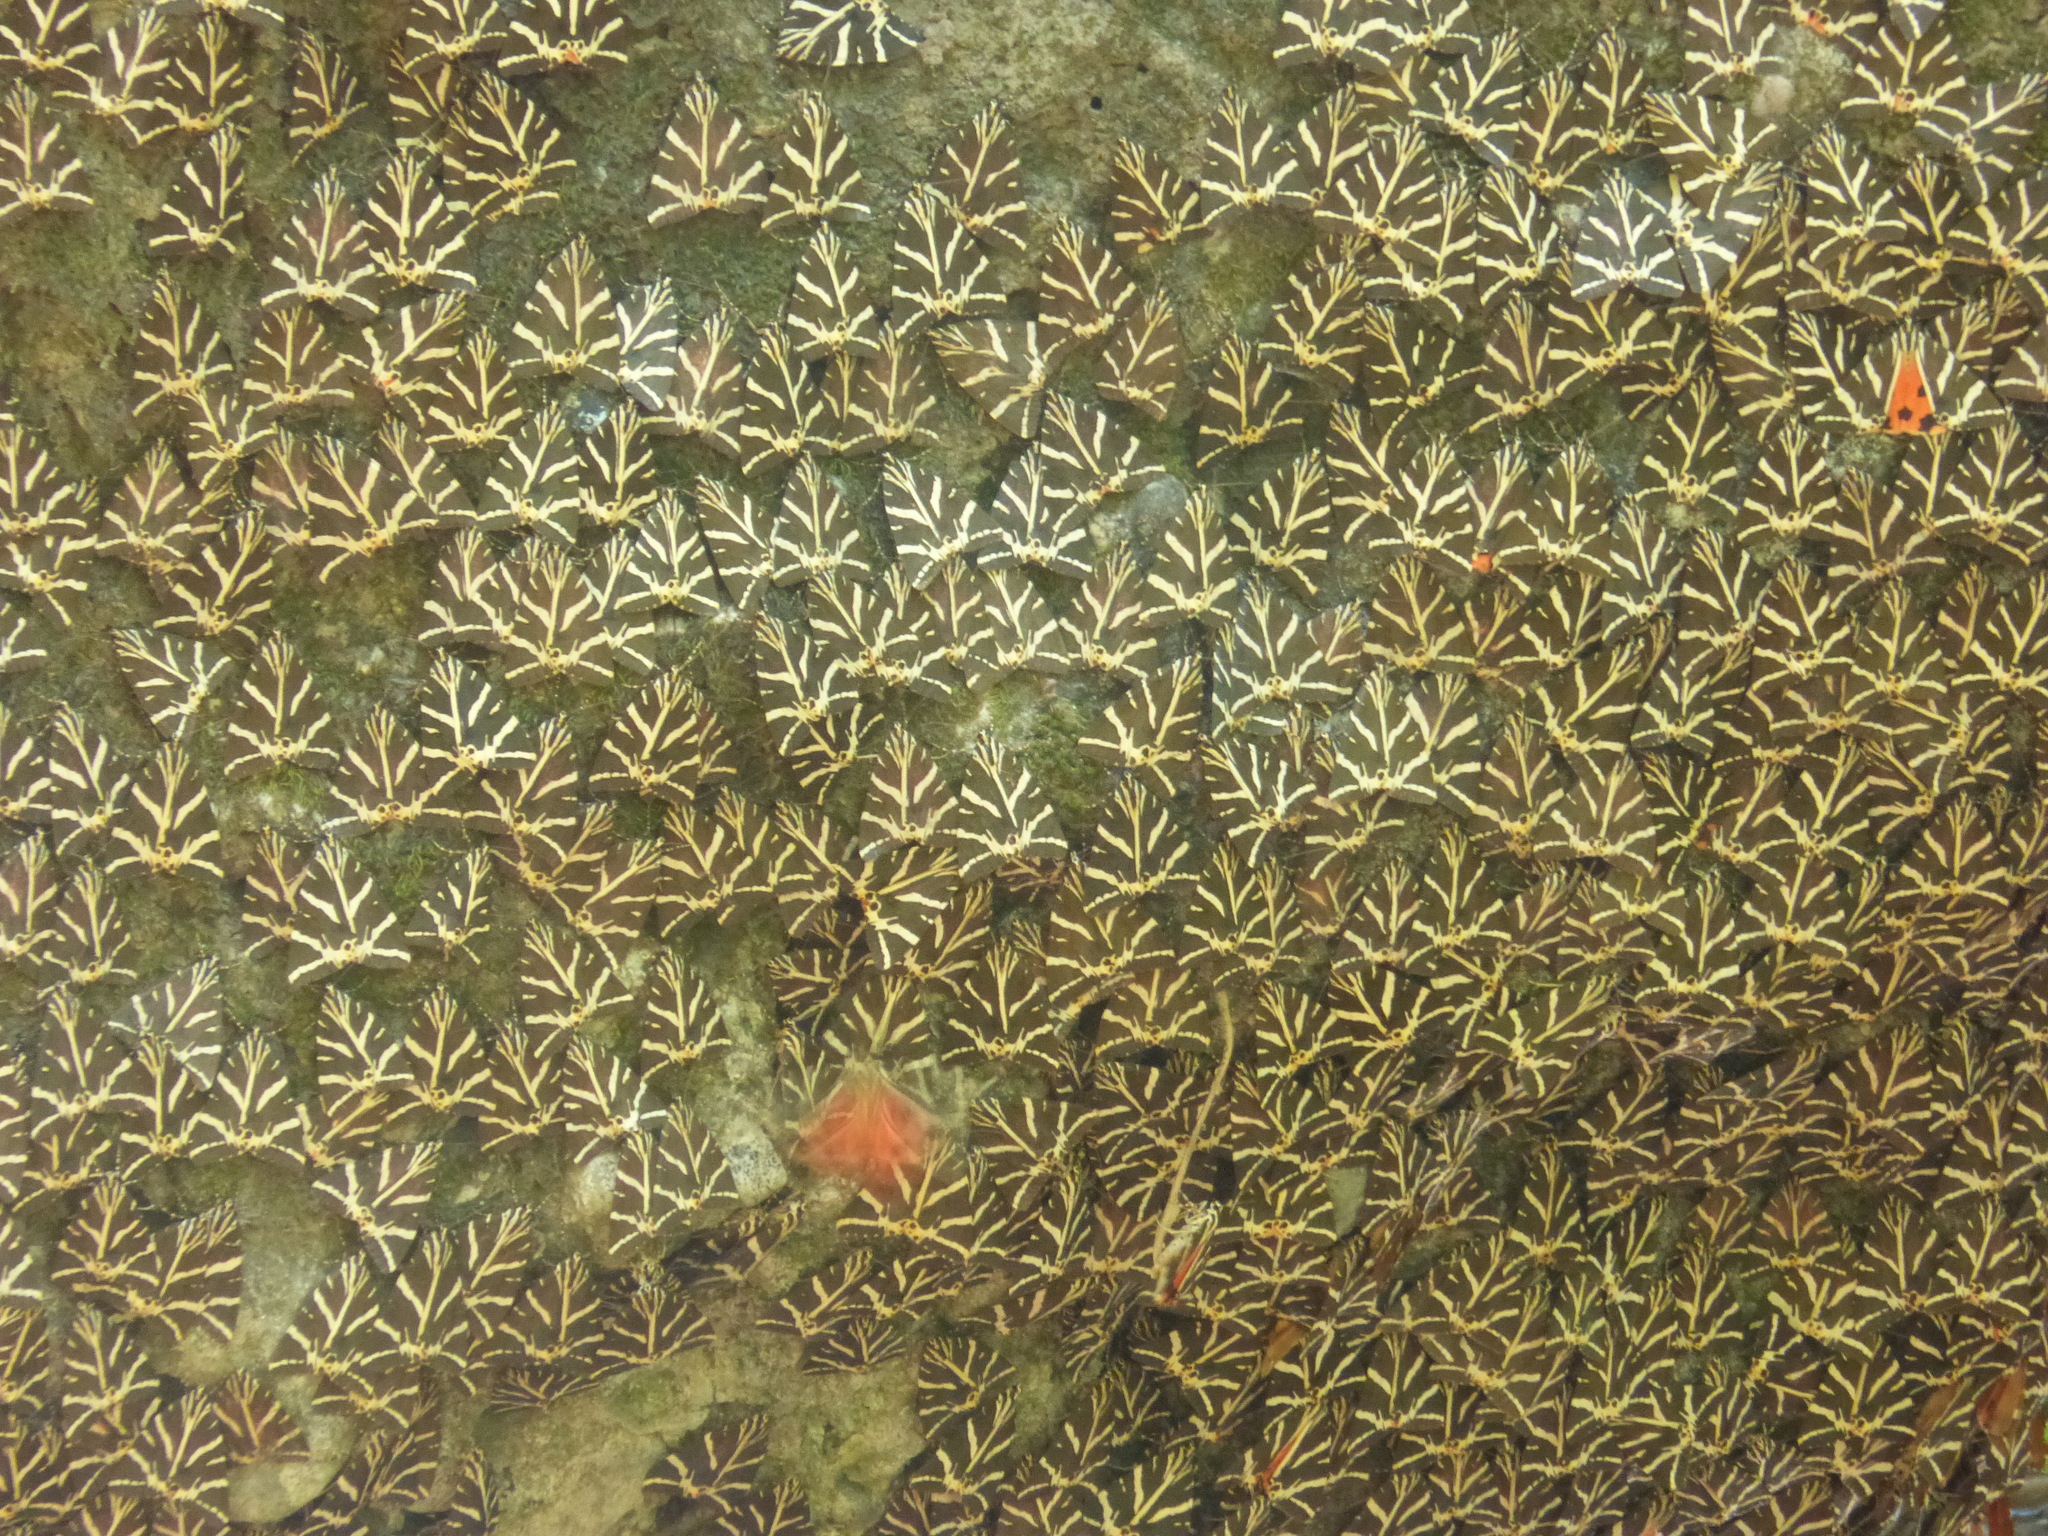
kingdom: Animalia
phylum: Arthropoda
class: Insecta
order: Lepidoptera
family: Erebidae
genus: Euplagia
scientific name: Euplagia quadripunctaria
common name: Jersey tiger
